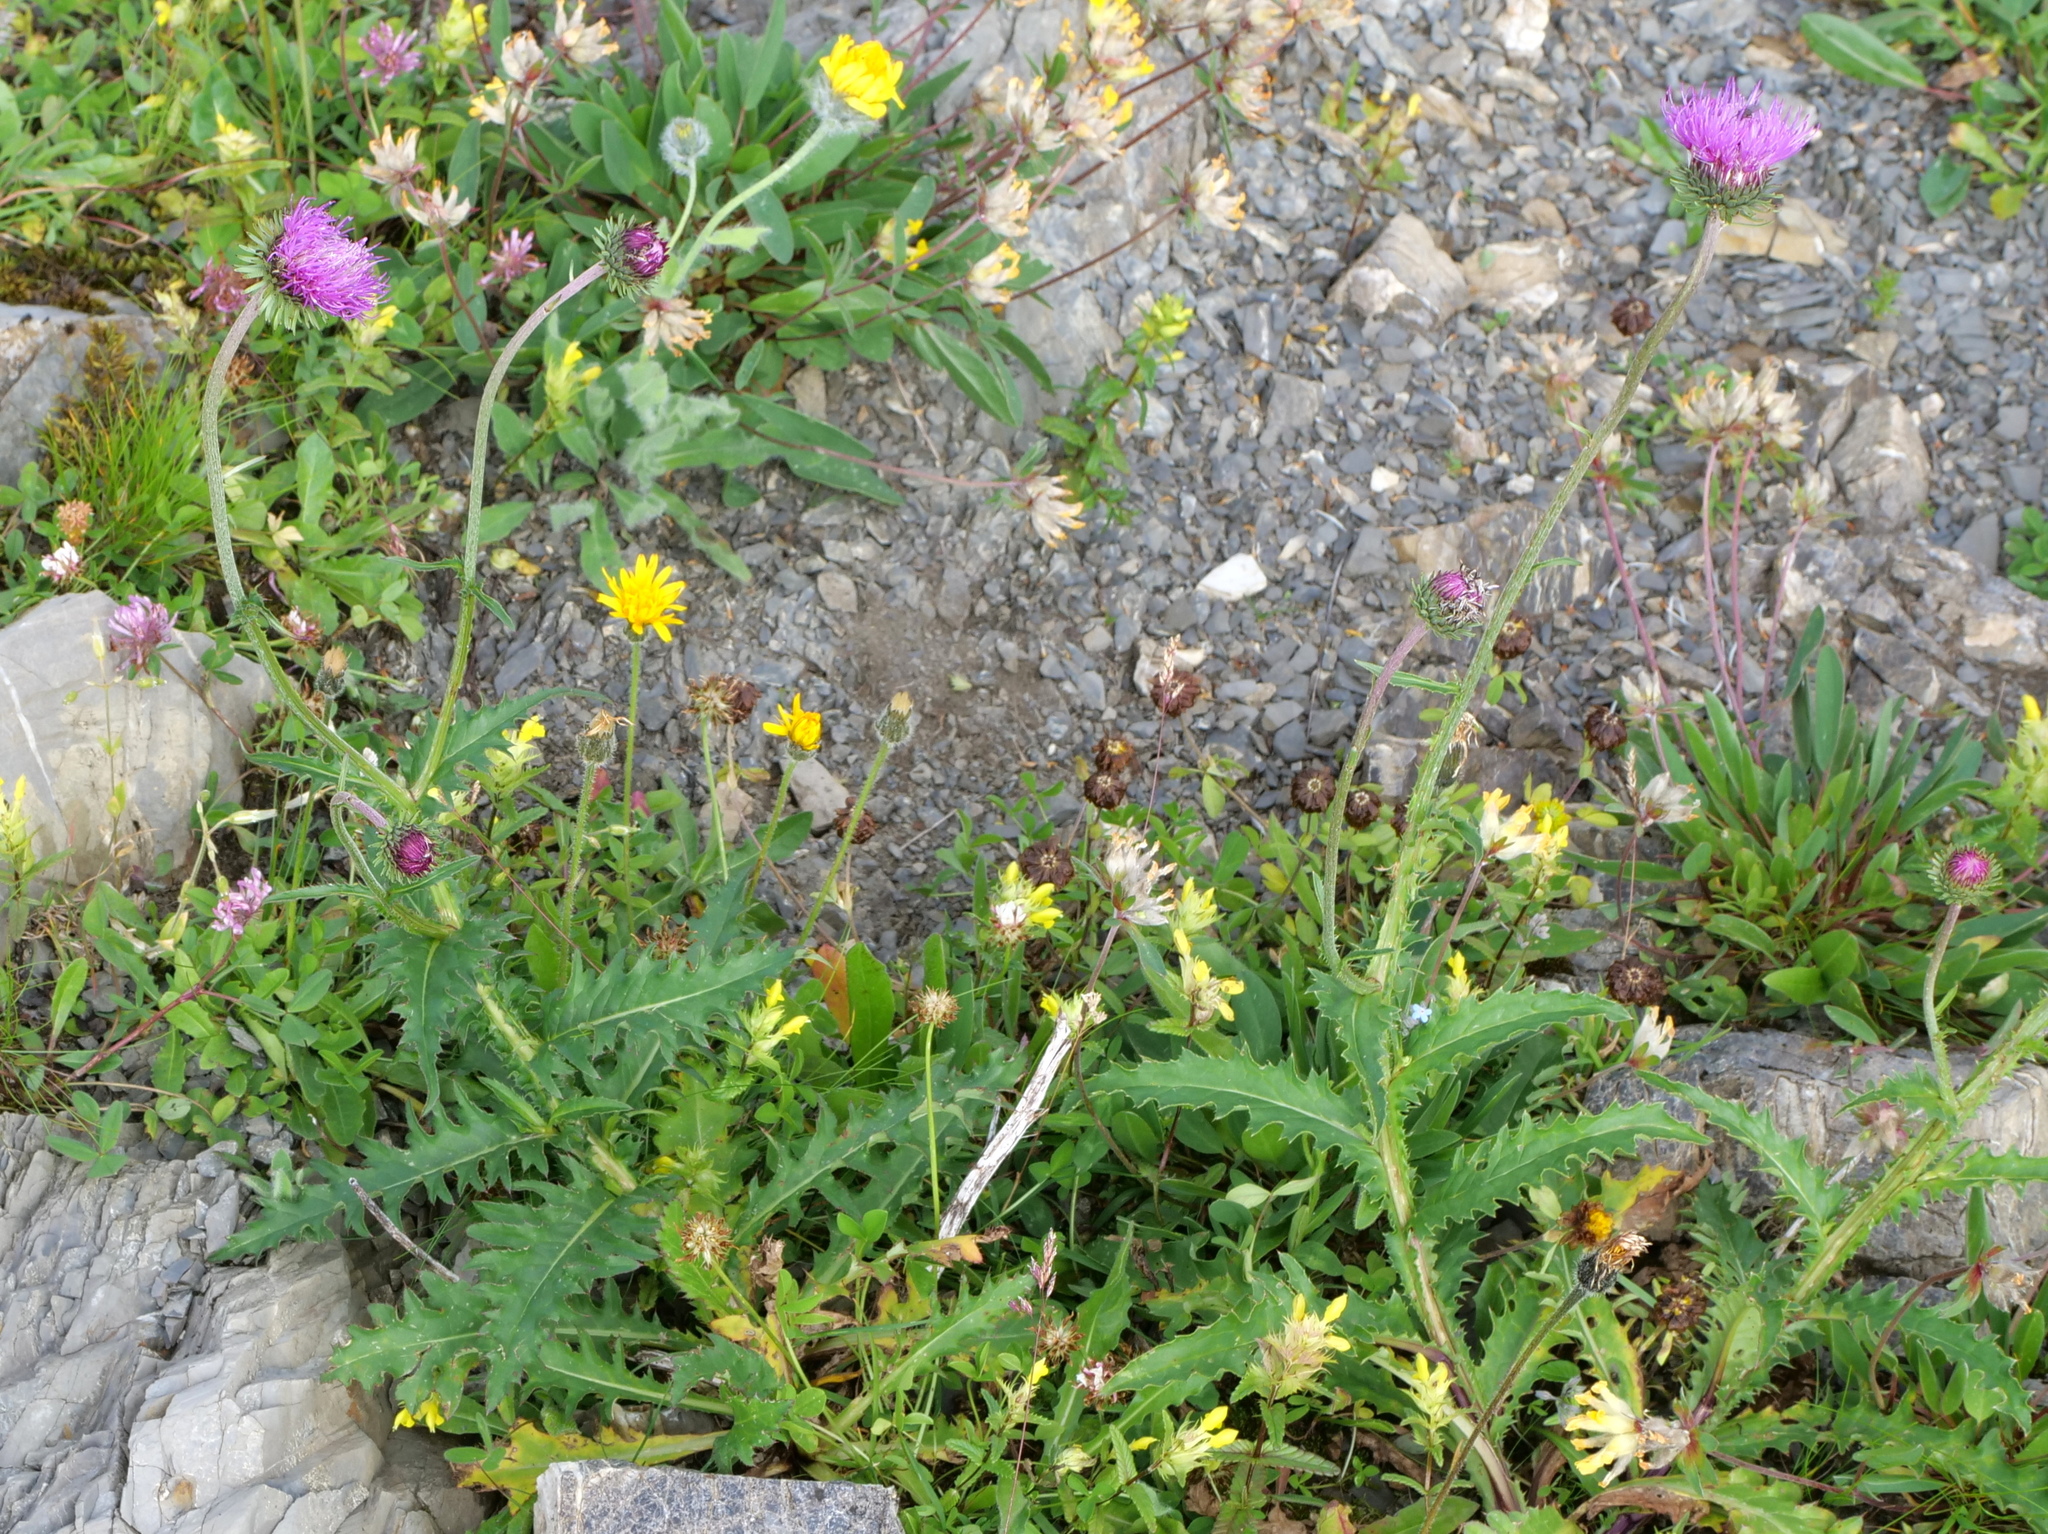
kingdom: Plantae
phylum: Tracheophyta
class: Magnoliopsida
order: Asterales
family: Asteraceae
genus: Carduus
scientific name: Carduus defloratus
